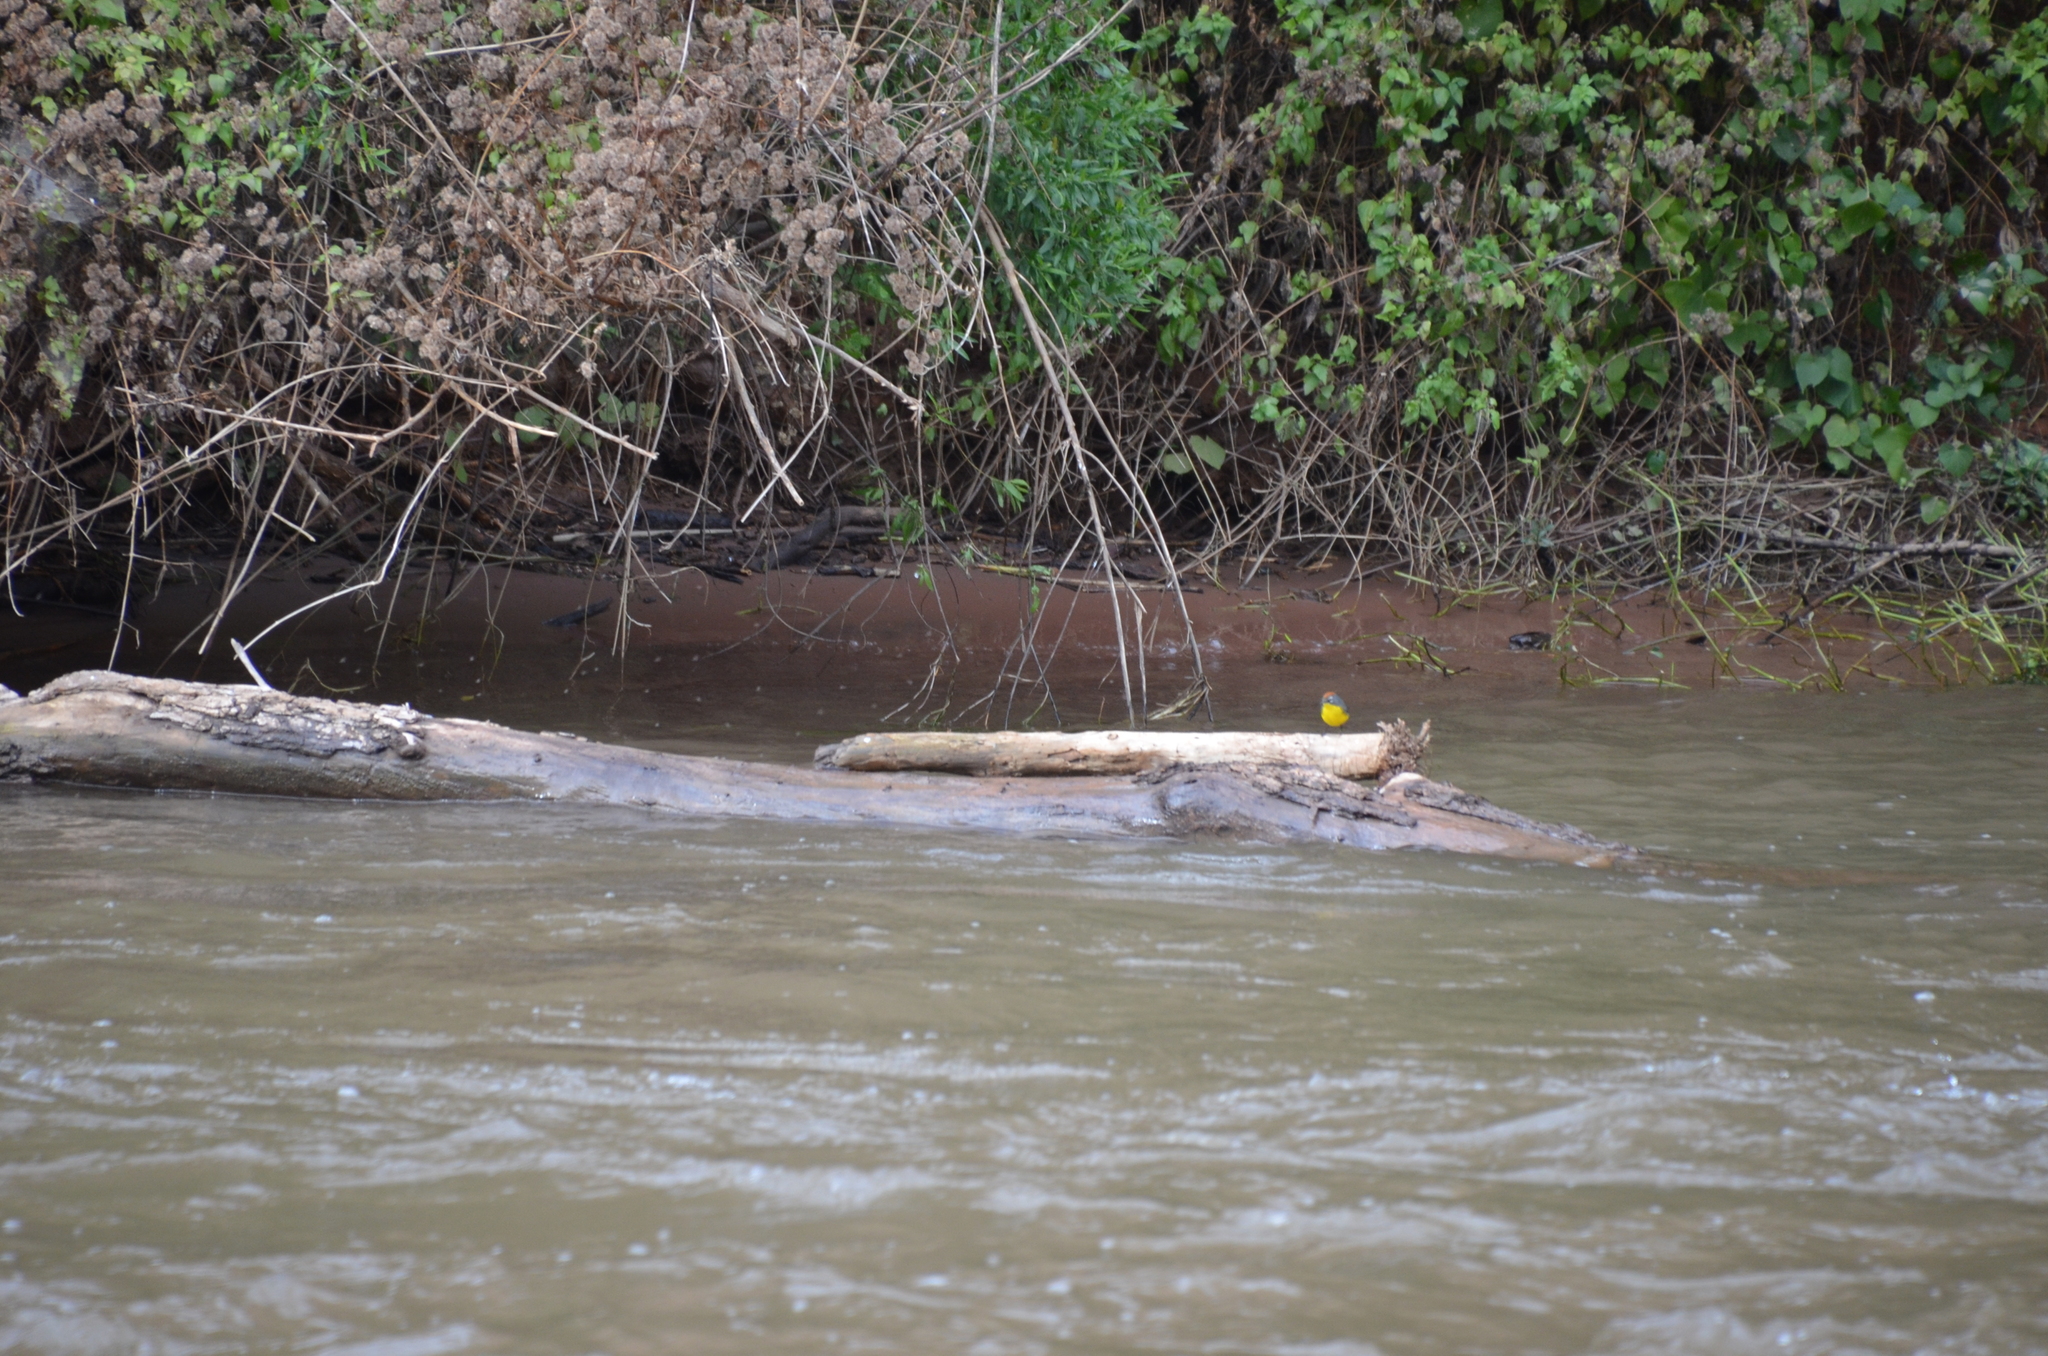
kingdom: Animalia
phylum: Chordata
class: Aves
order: Passeriformes
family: Parulidae
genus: Setophaga
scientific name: Setophaga pitiayumi
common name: Tropical parula
